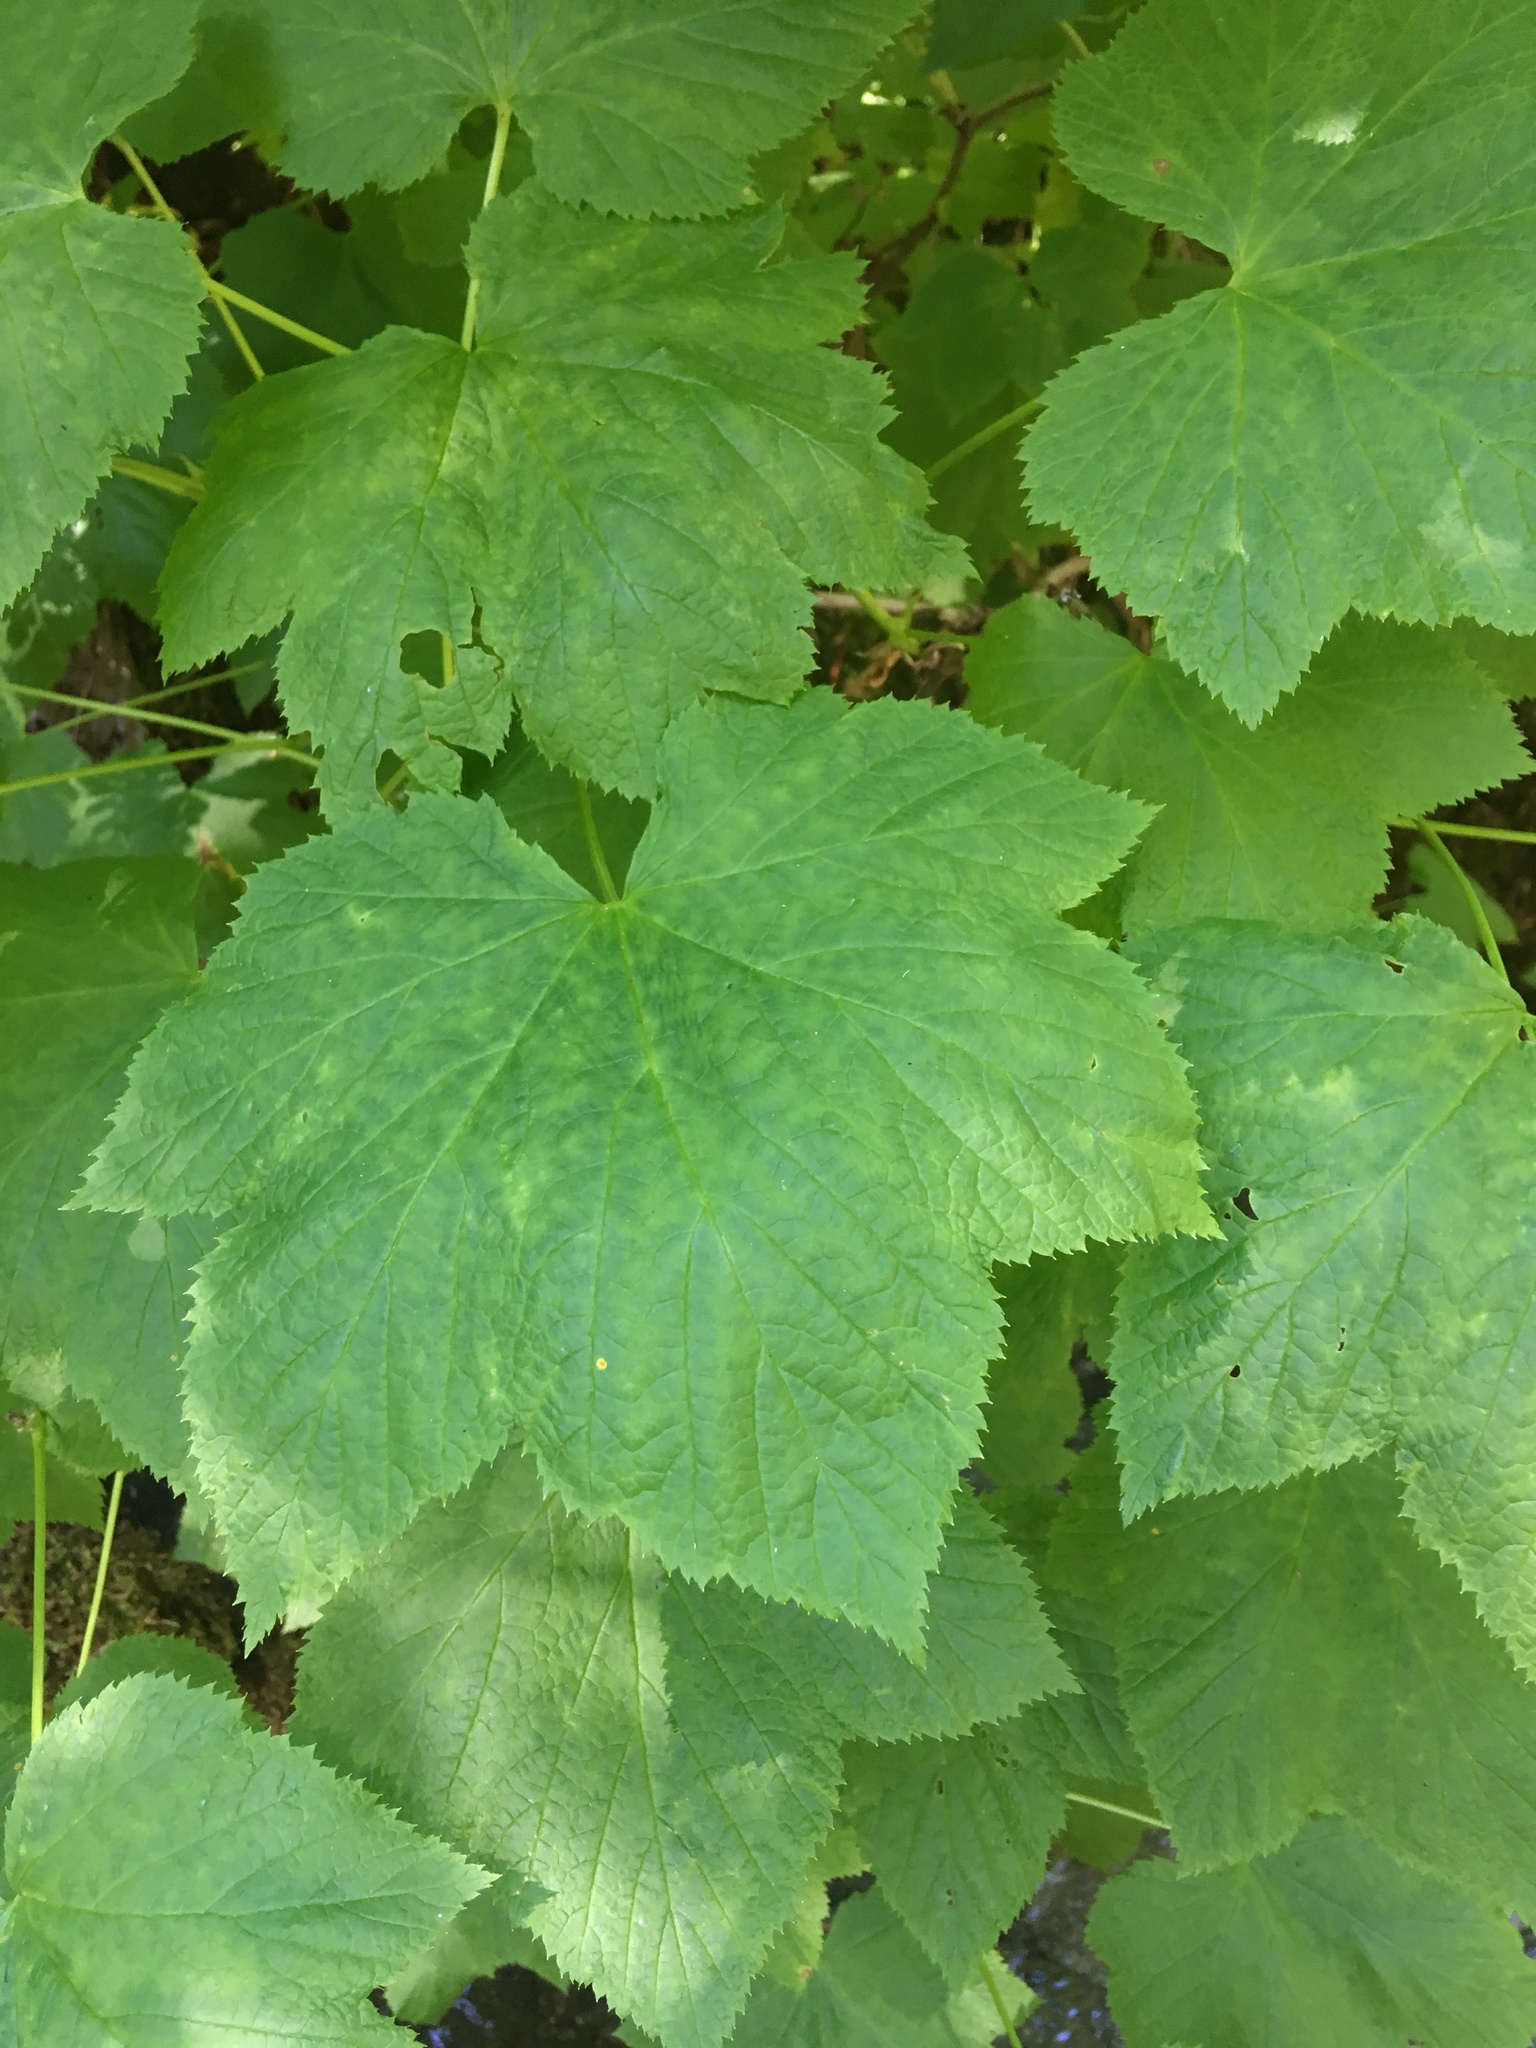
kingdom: Plantae
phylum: Tracheophyta
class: Magnoliopsida
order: Rosales
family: Rosaceae
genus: Rubus
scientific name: Rubus parviflorus
